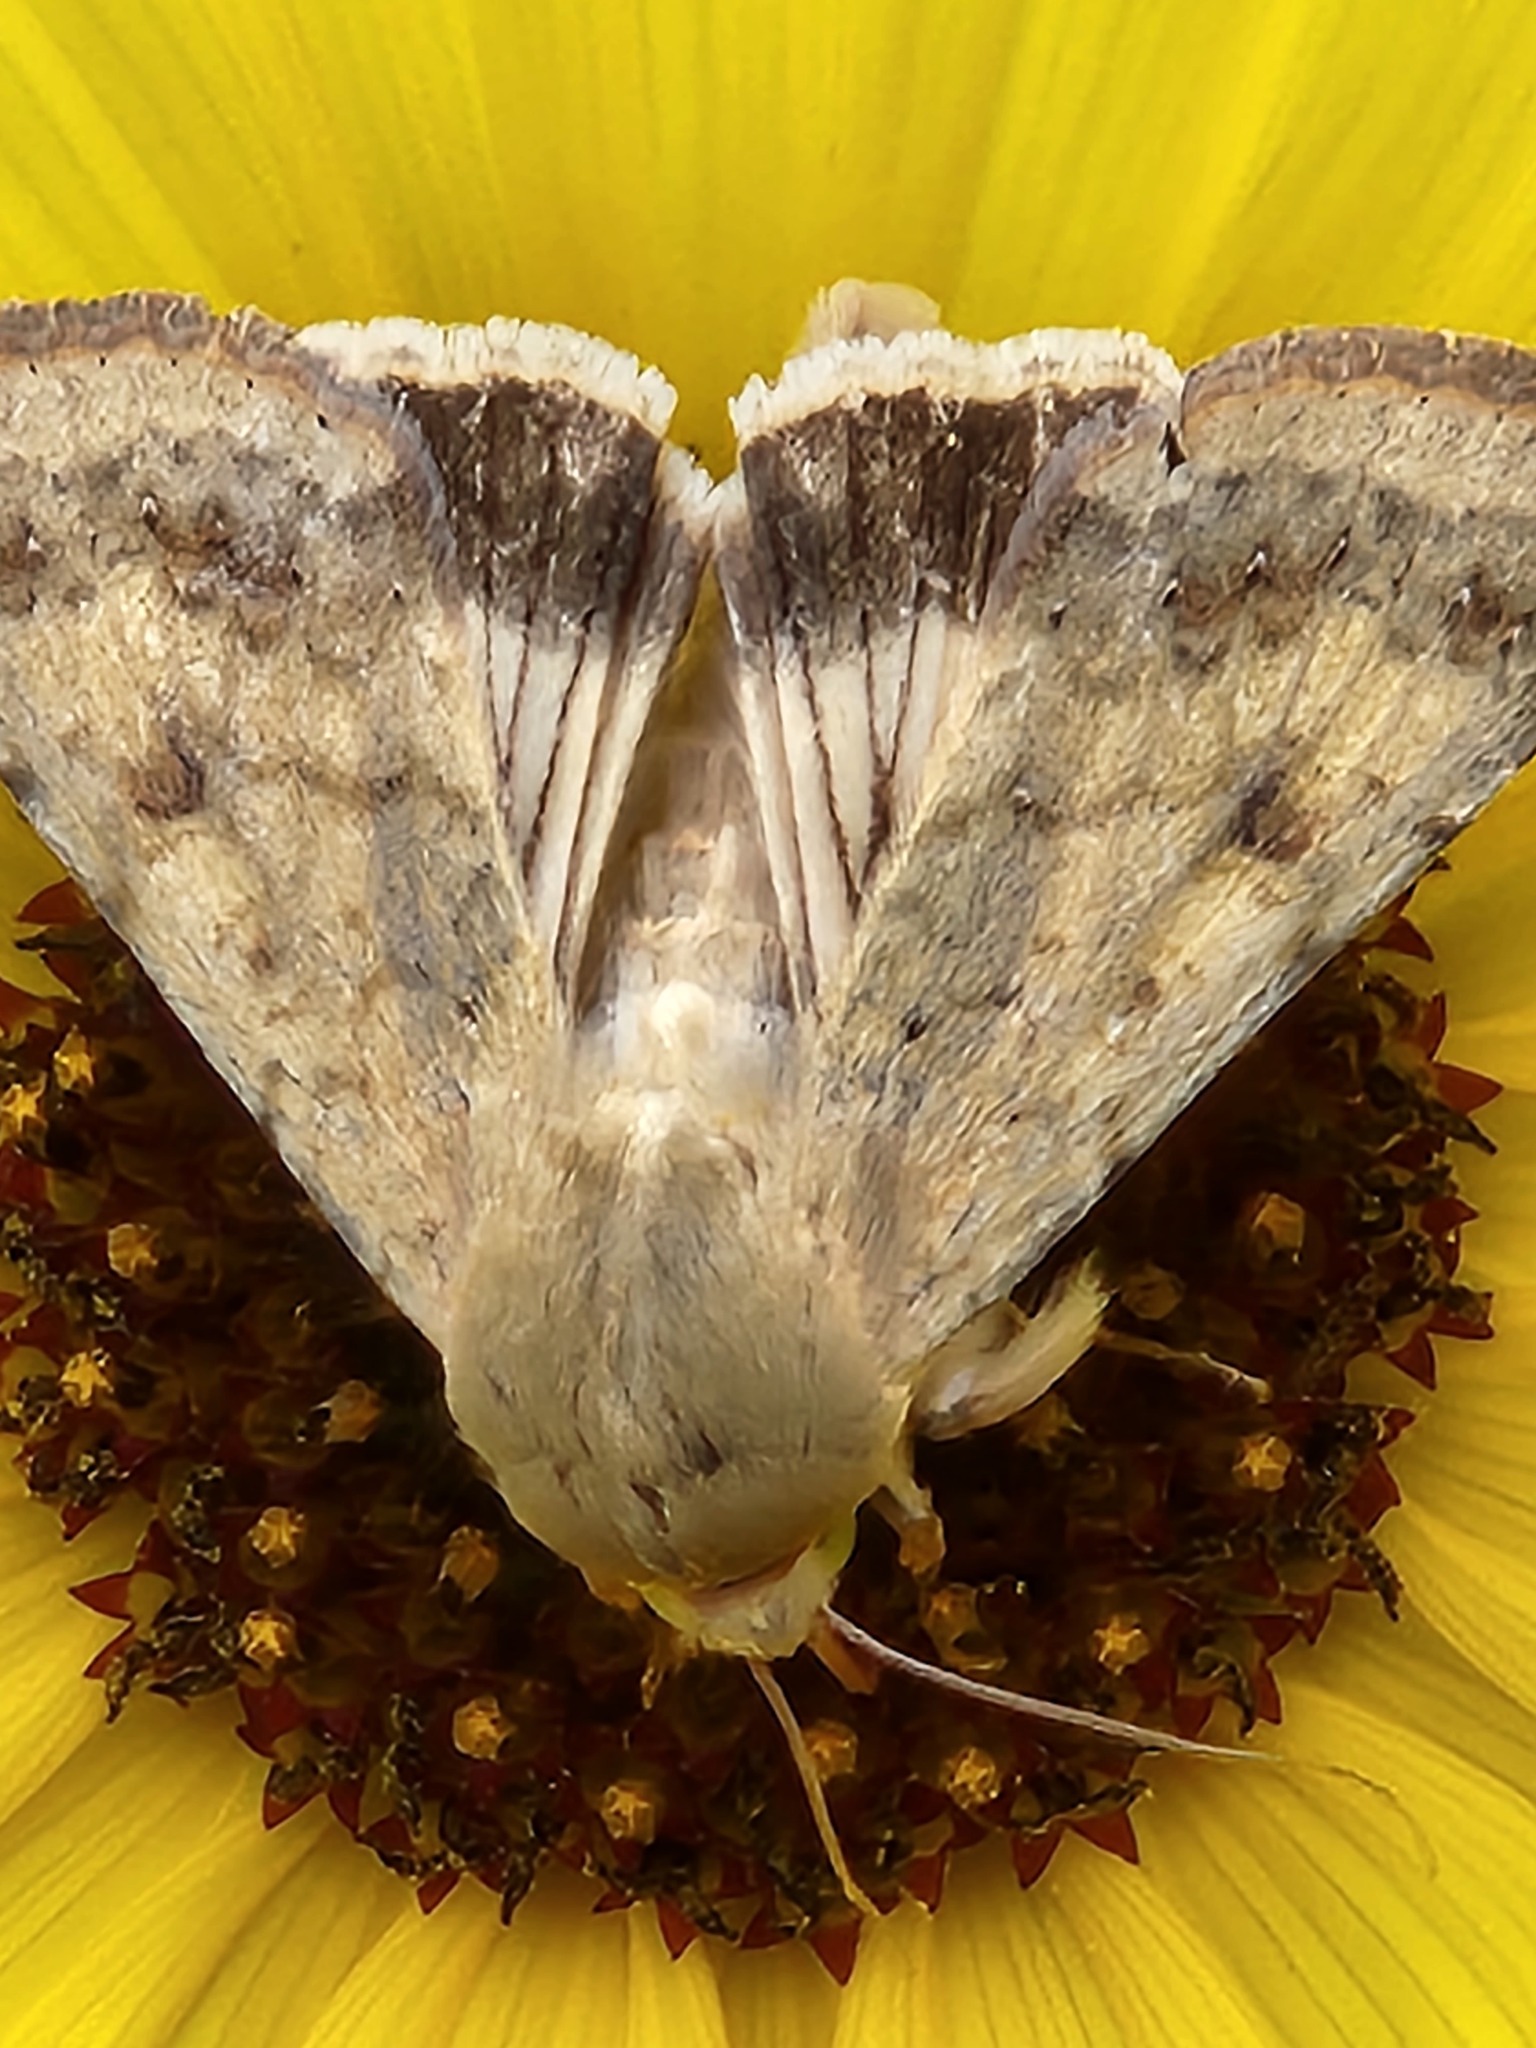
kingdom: Animalia
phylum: Arthropoda
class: Insecta
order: Lepidoptera
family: Noctuidae
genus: Helicoverpa
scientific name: Helicoverpa zea
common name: Bollworm
